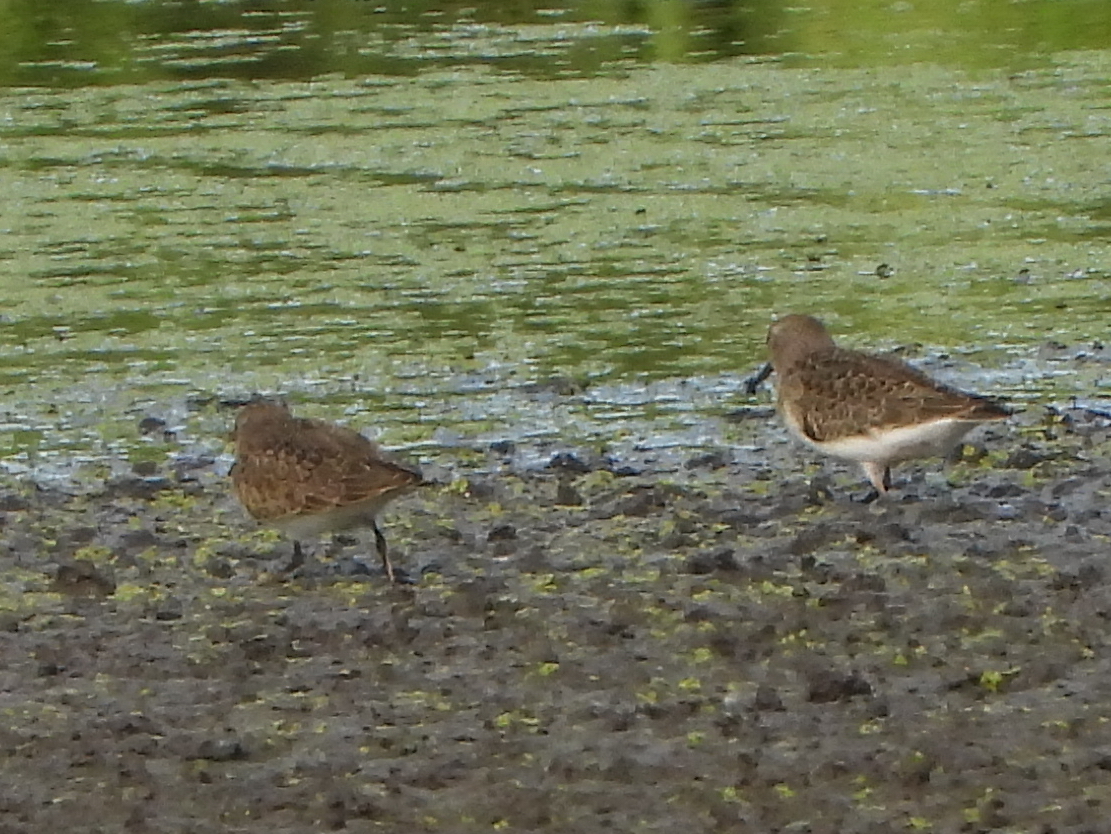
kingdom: Animalia
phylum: Chordata
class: Aves
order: Charadriiformes
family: Scolopacidae
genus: Calidris
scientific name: Calidris temminckii
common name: Temminck's stint
